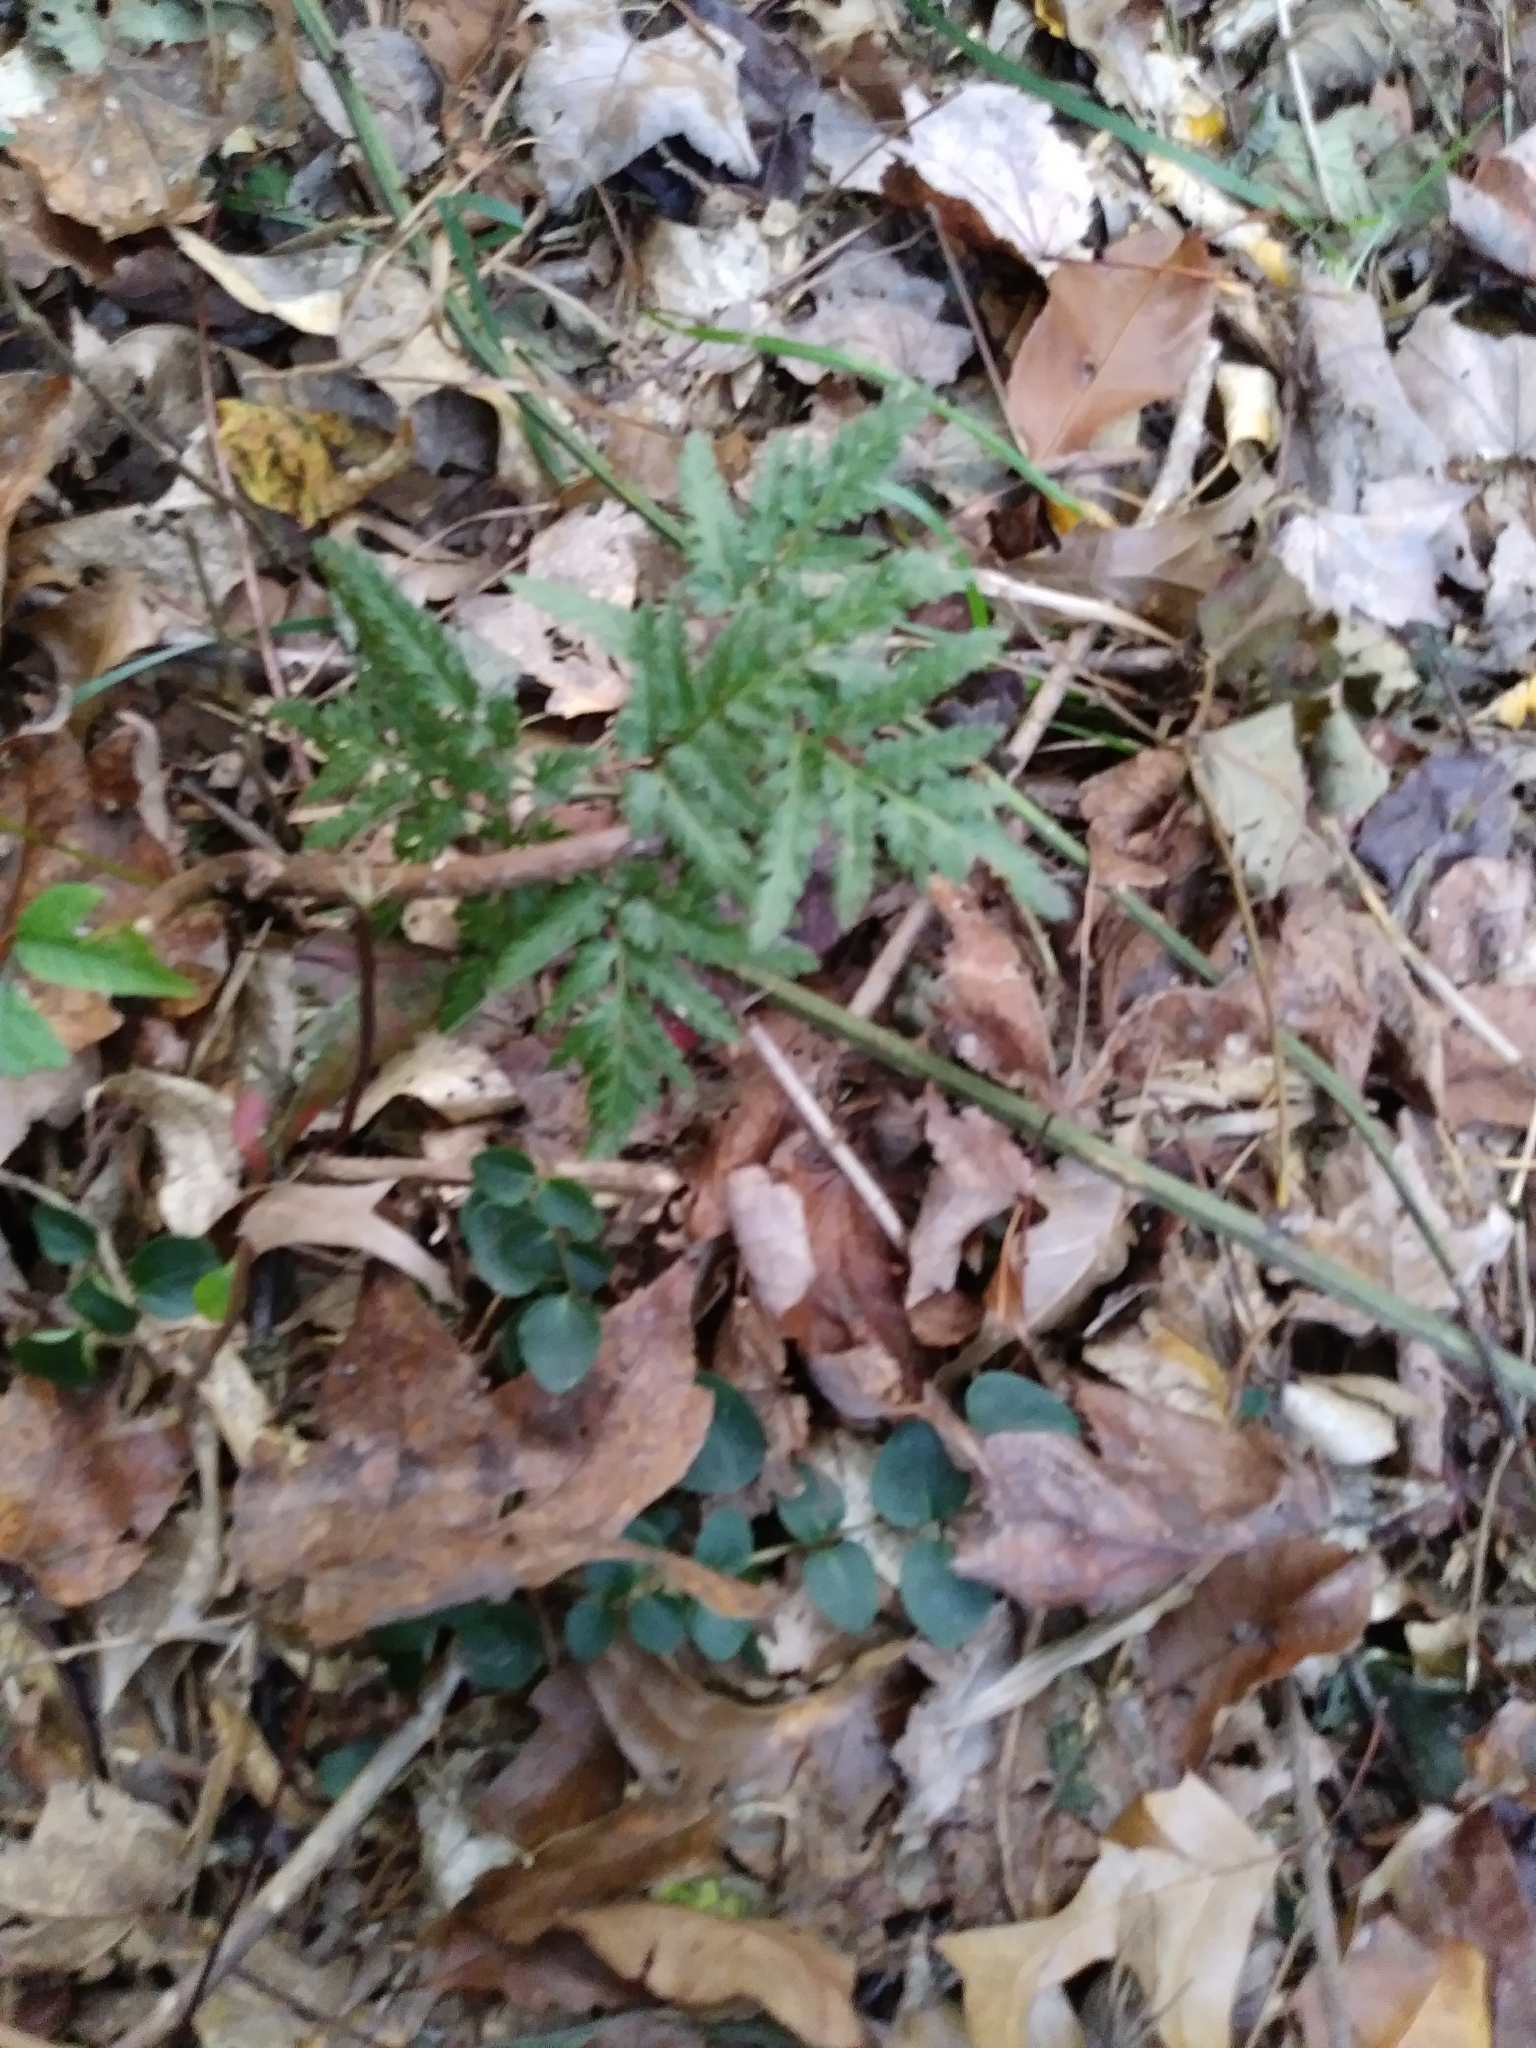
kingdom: Plantae
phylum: Tracheophyta
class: Polypodiopsida
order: Ophioglossales
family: Ophioglossaceae
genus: Sceptridium
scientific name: Sceptridium dissectum
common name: Cut-leaved grapefern
